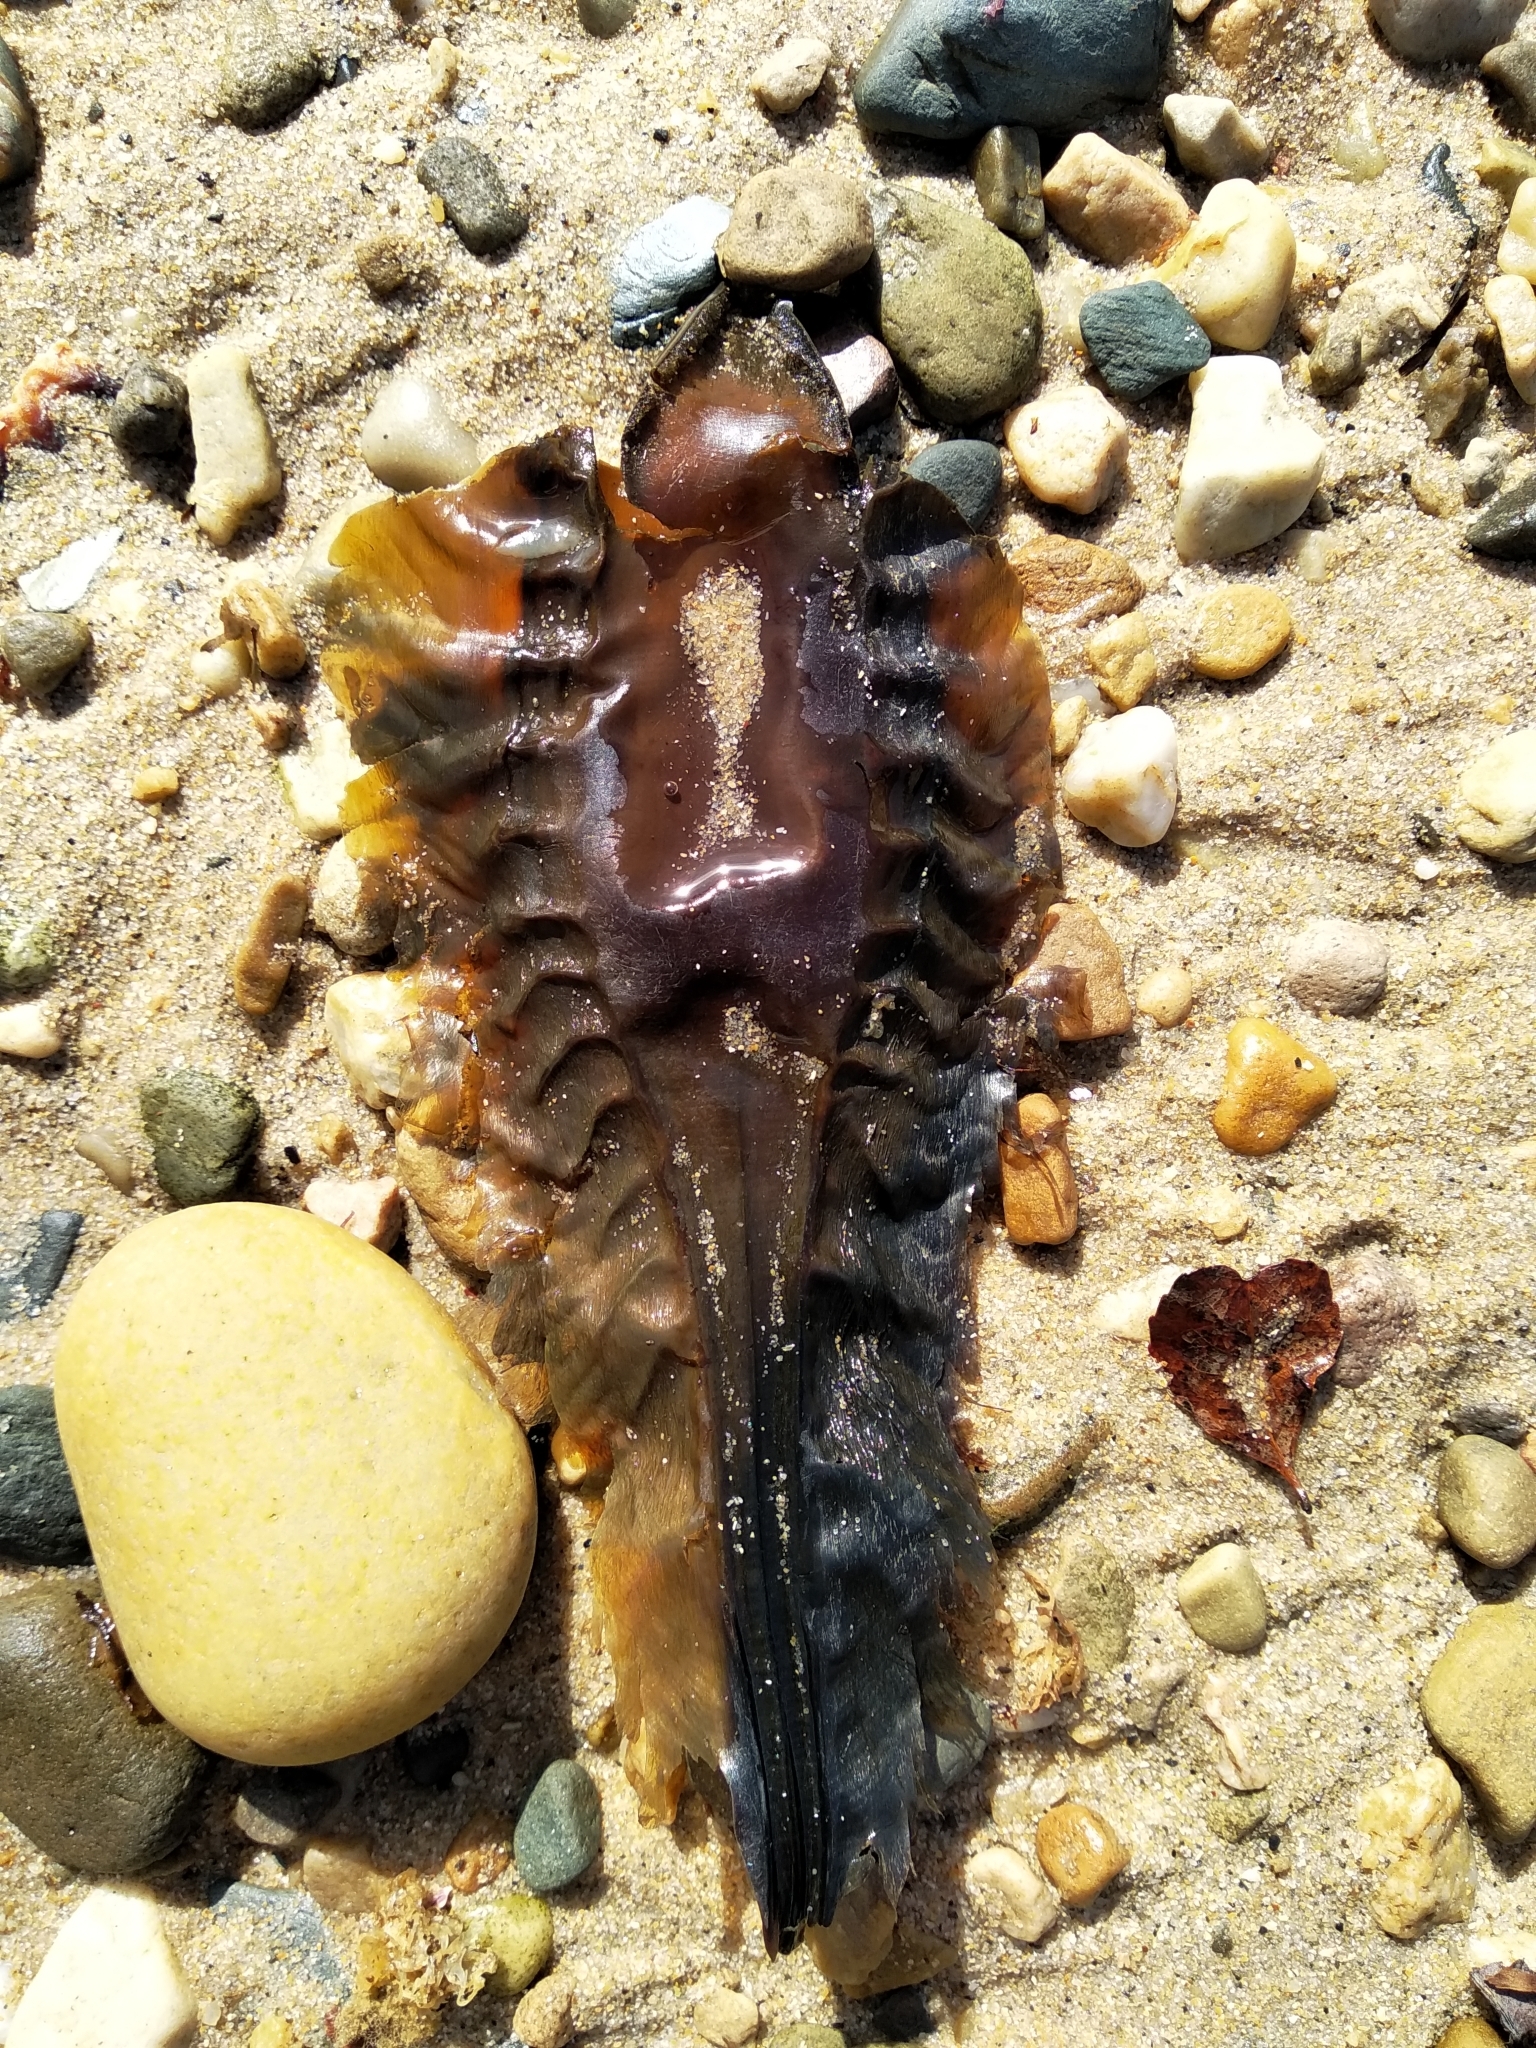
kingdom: Animalia
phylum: Chordata
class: Holocephali
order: Chimaeriformes
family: Callorhinchidae
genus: Callorhinchus
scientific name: Callorhinchus capensis
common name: Cape elephantfish
